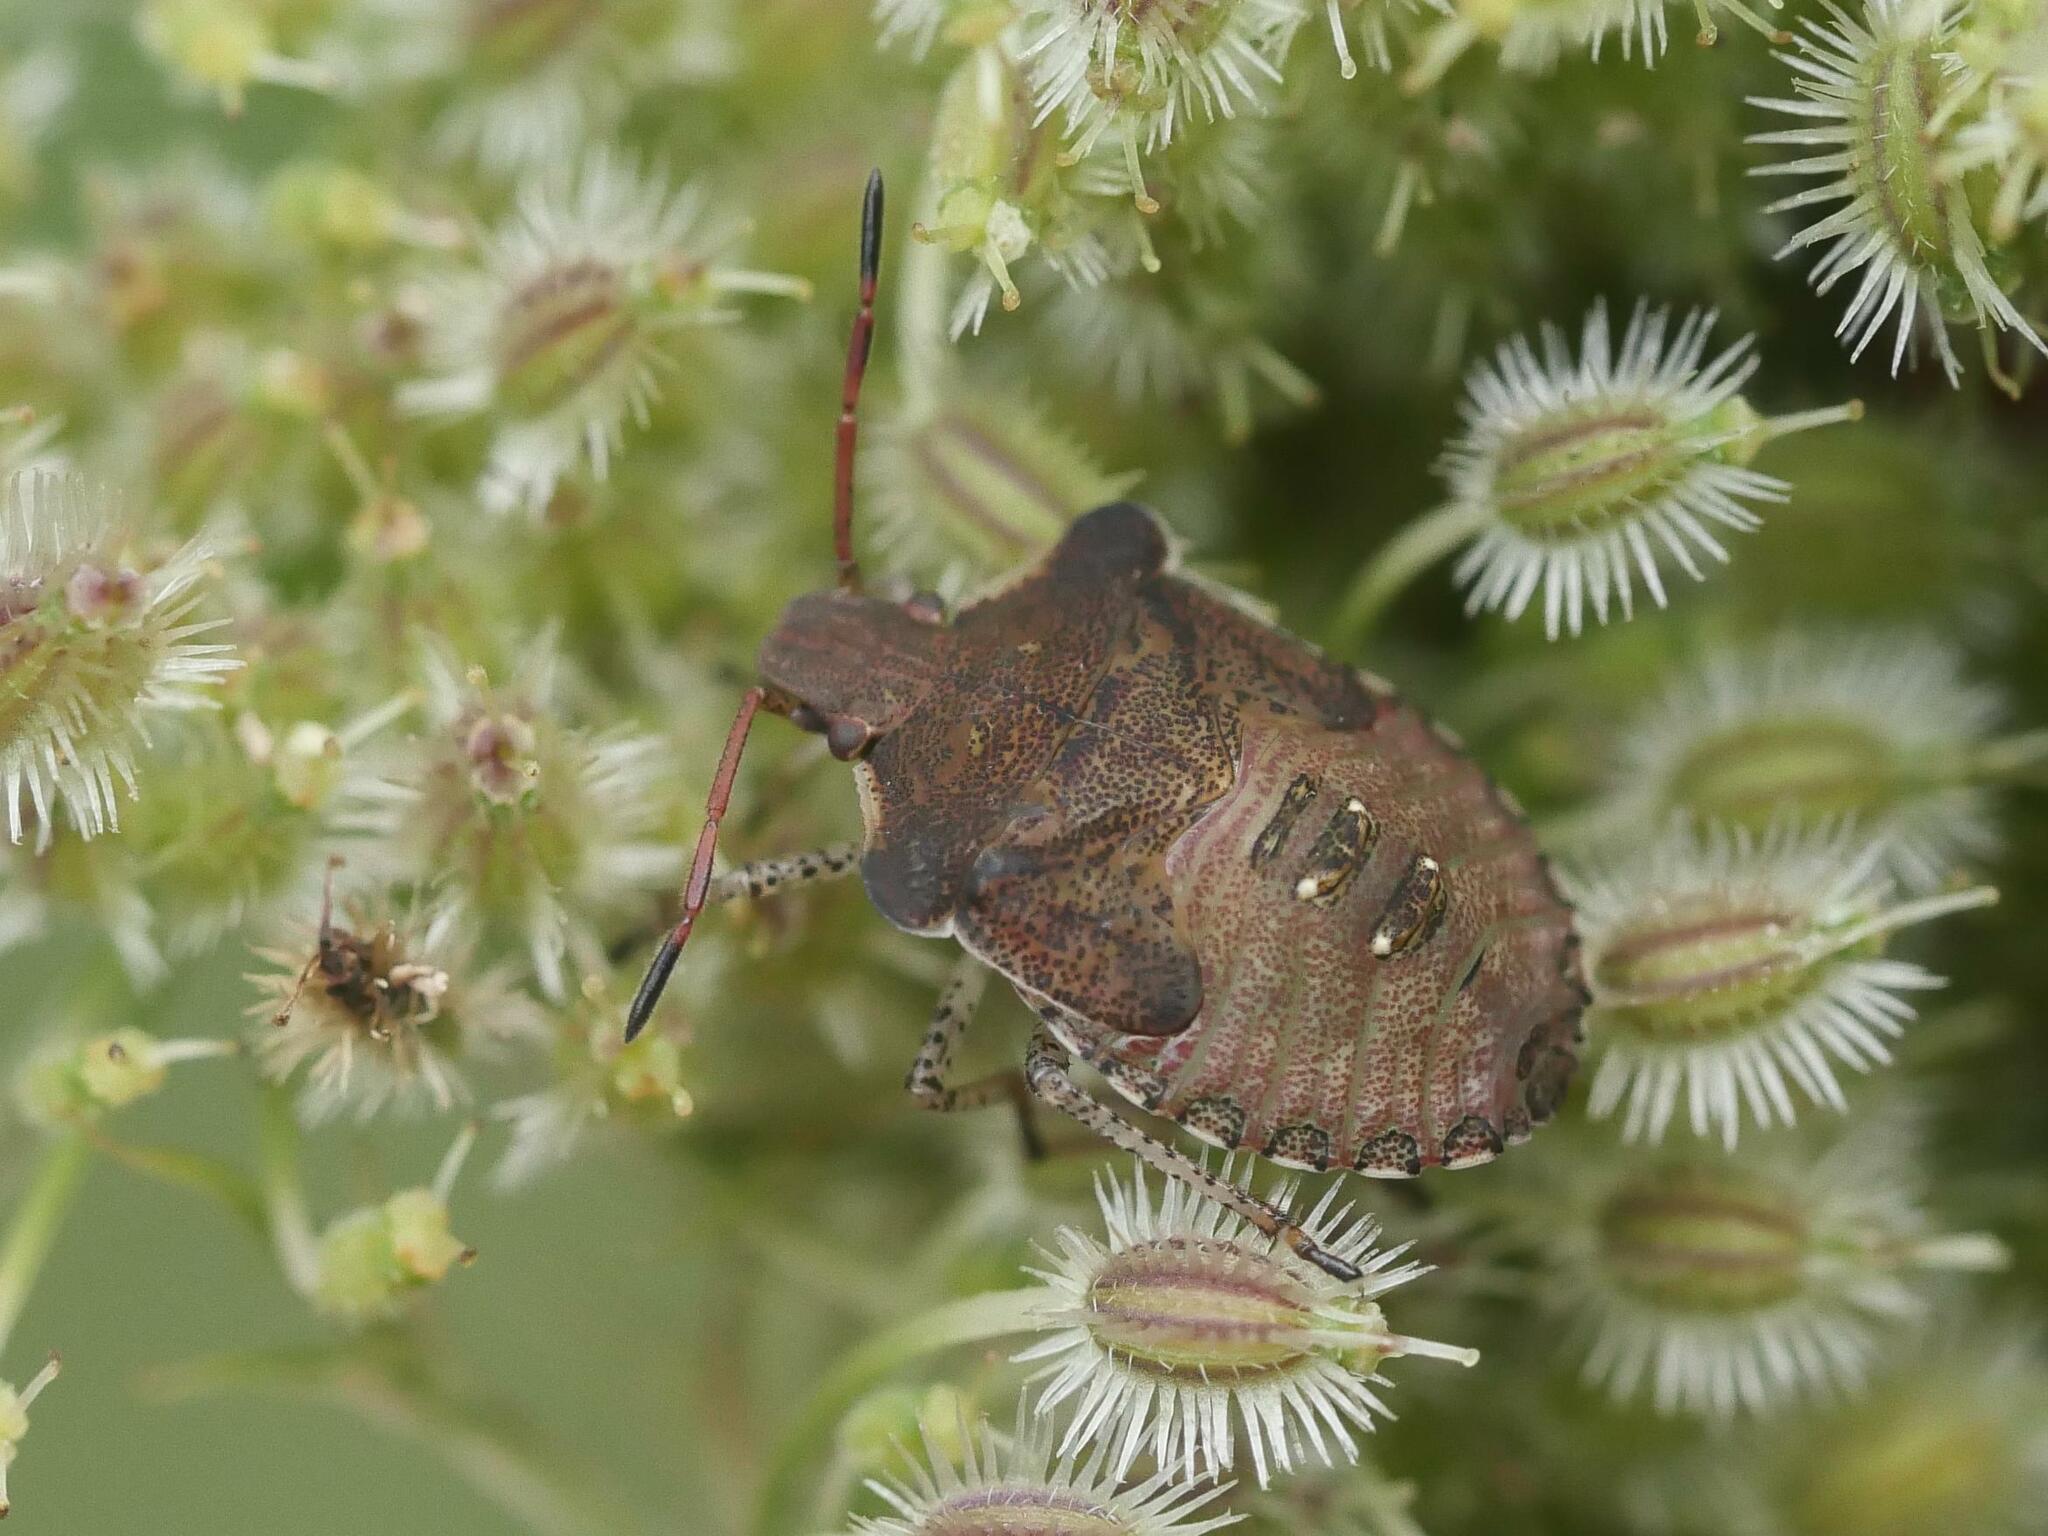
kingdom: Animalia
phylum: Arthropoda
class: Insecta
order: Hemiptera
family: Pentatomidae
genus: Euschistus
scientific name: Euschistus tristigmus
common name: Dusky stink bug
